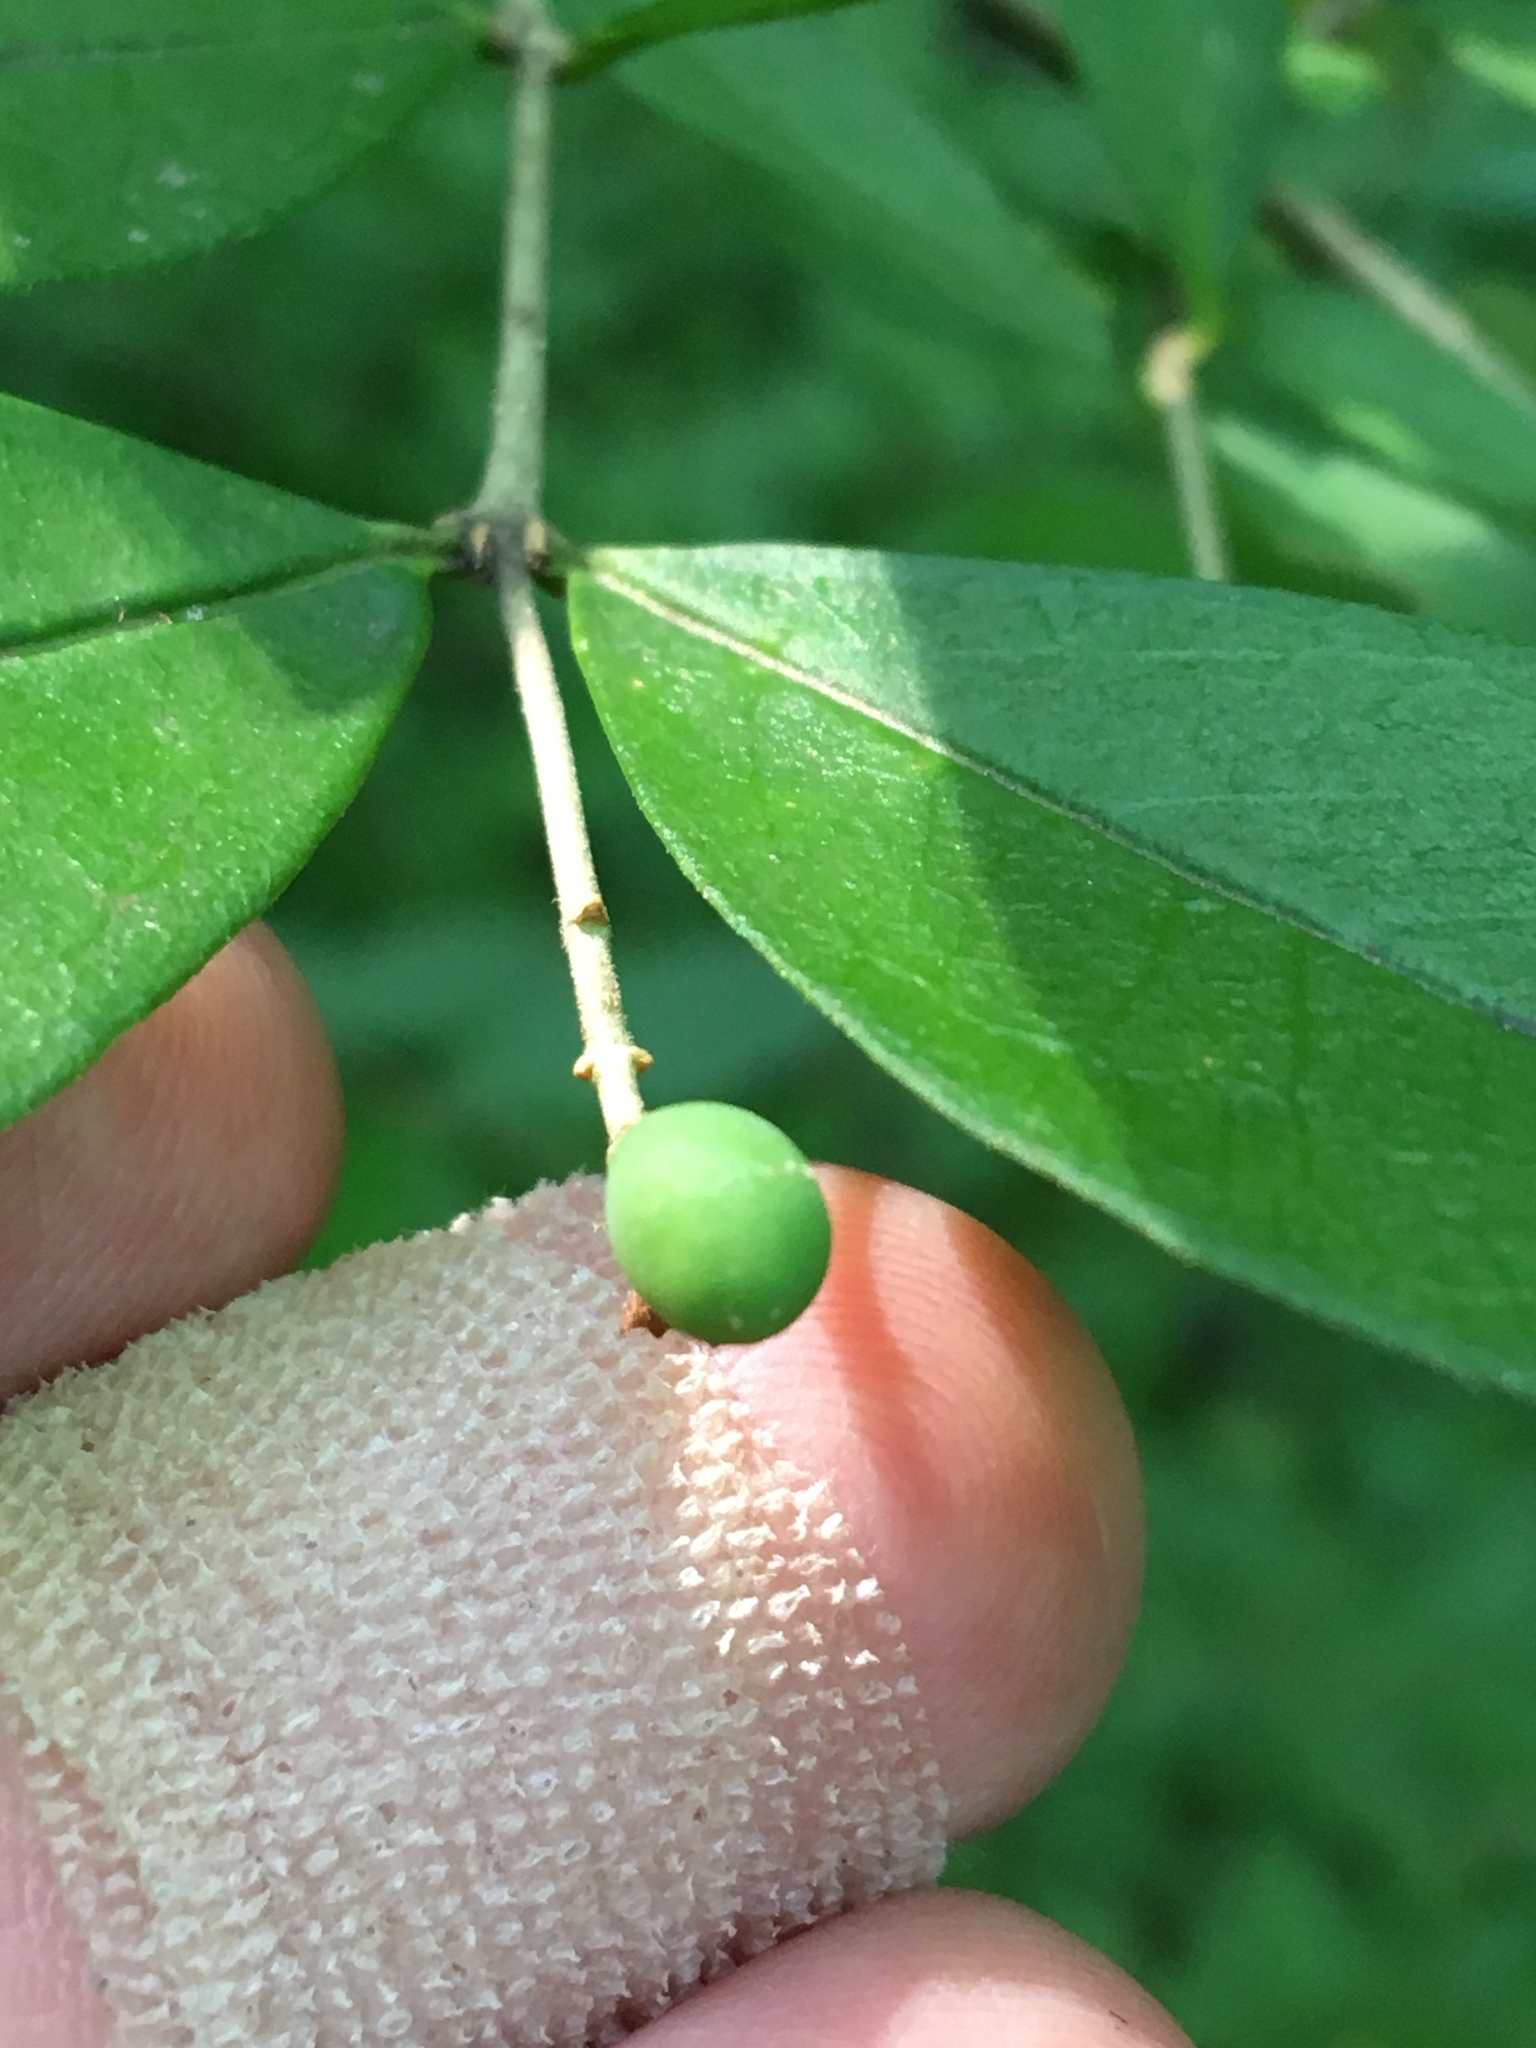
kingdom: Plantae
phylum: Tracheophyta
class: Magnoliopsida
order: Lamiales
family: Oleaceae
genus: Ligustrum
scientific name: Ligustrum obtusifolium
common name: Border privet
